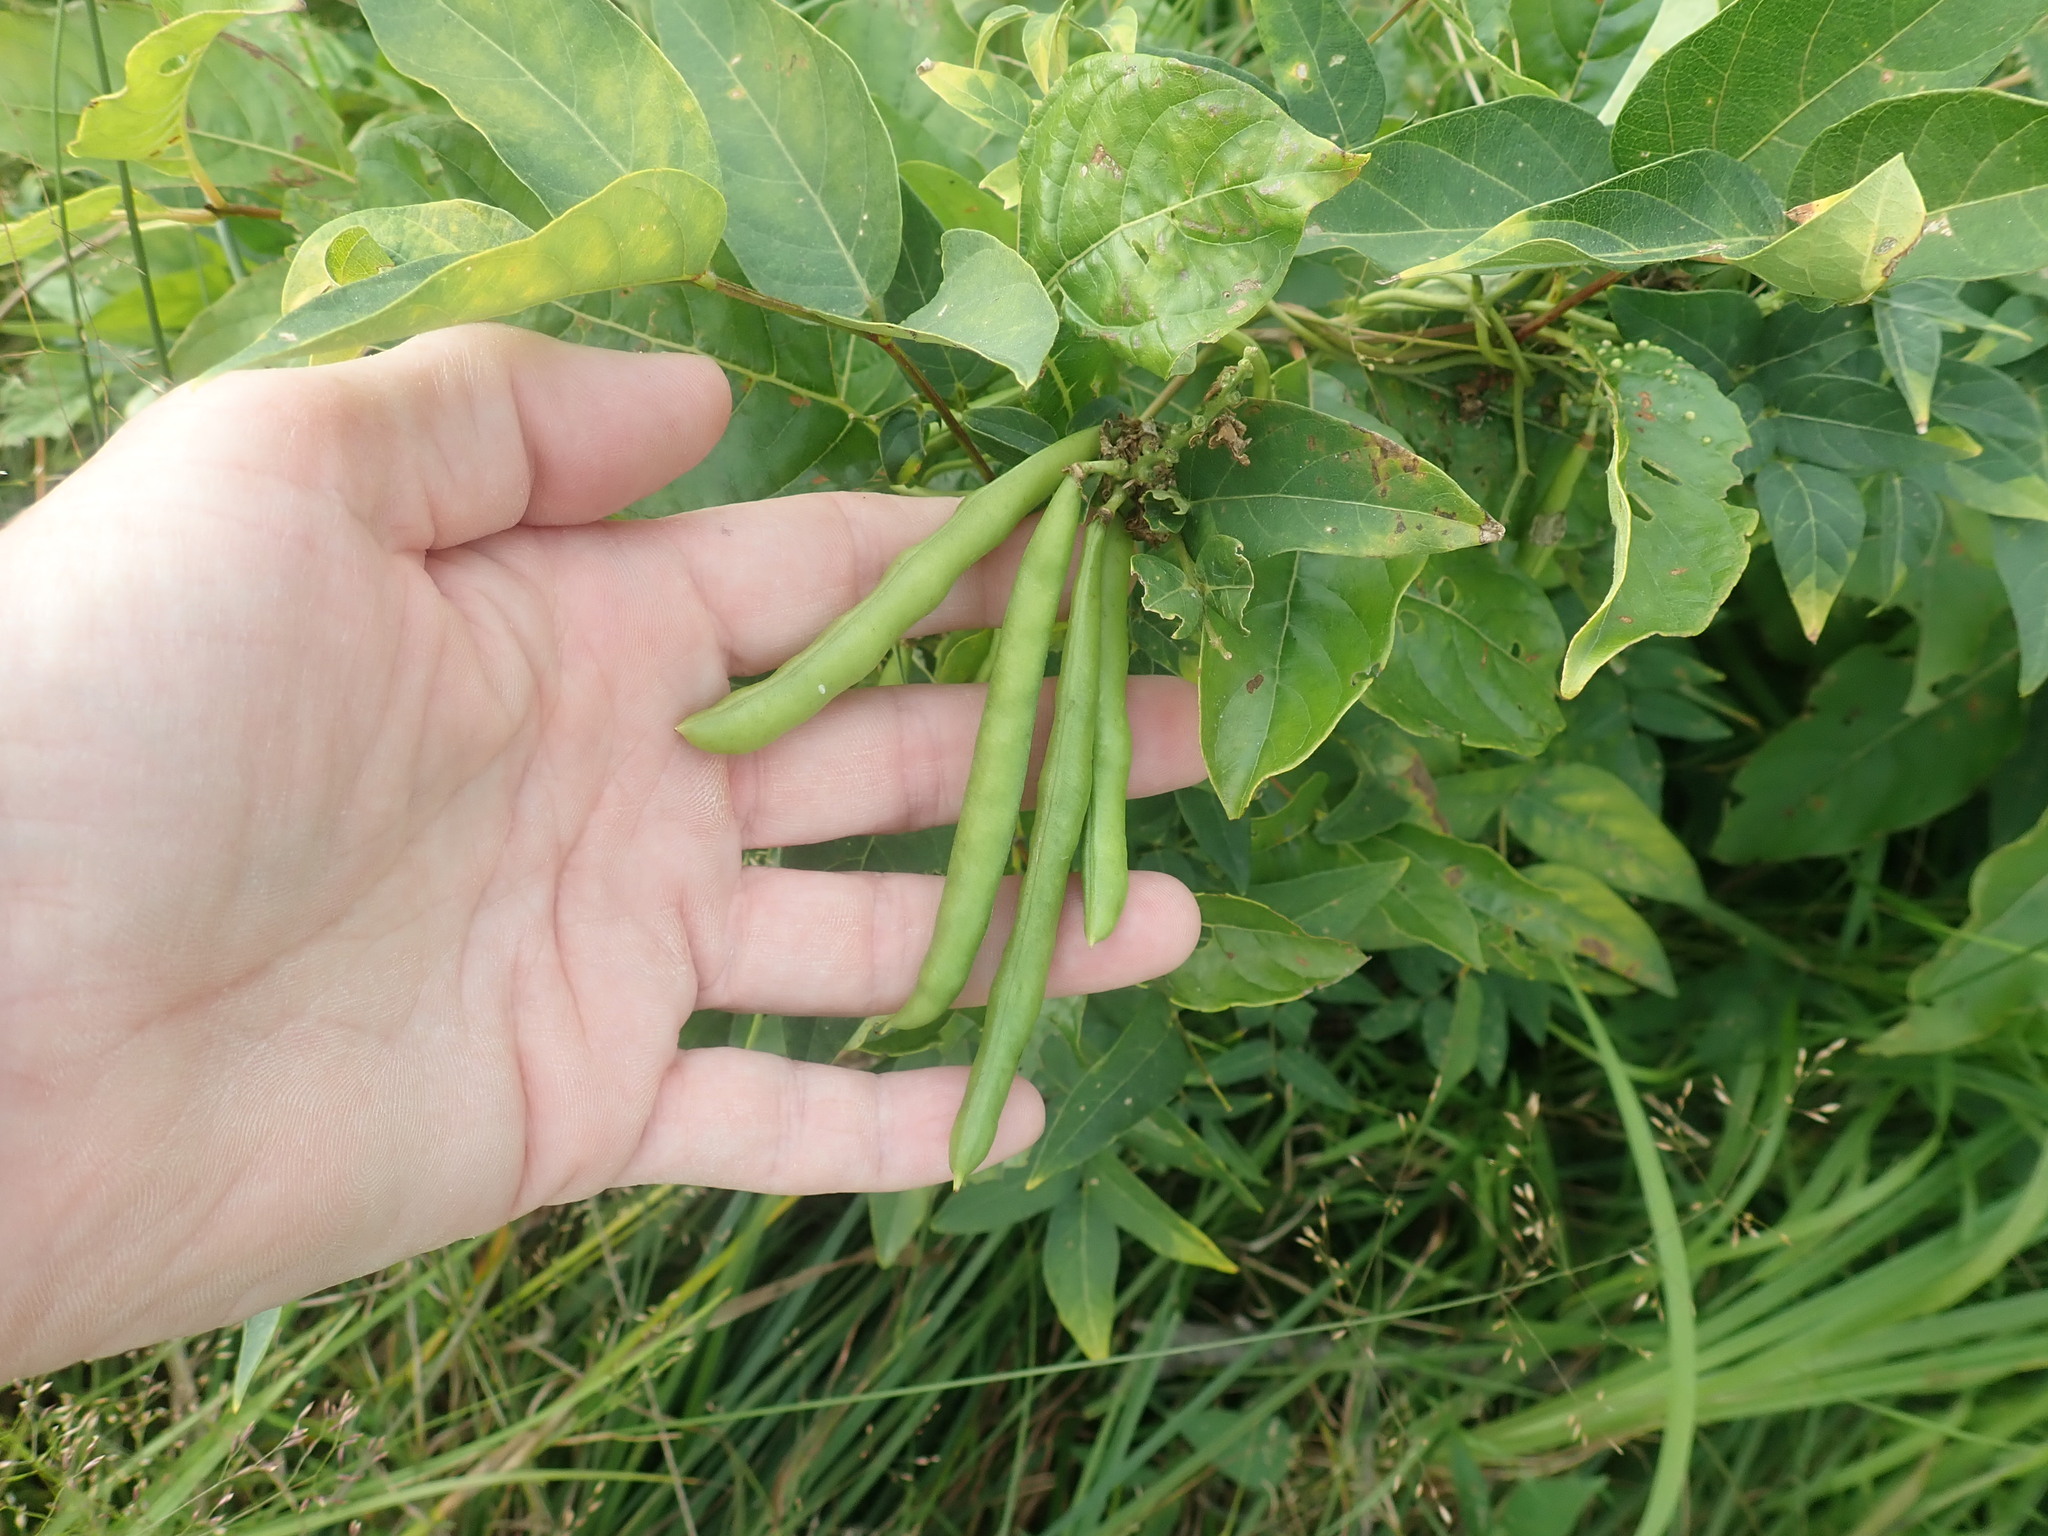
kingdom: Plantae
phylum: Tracheophyta
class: Magnoliopsida
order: Fabales
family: Fabaceae
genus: Apios
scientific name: Apios americana
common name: American potato-bean
